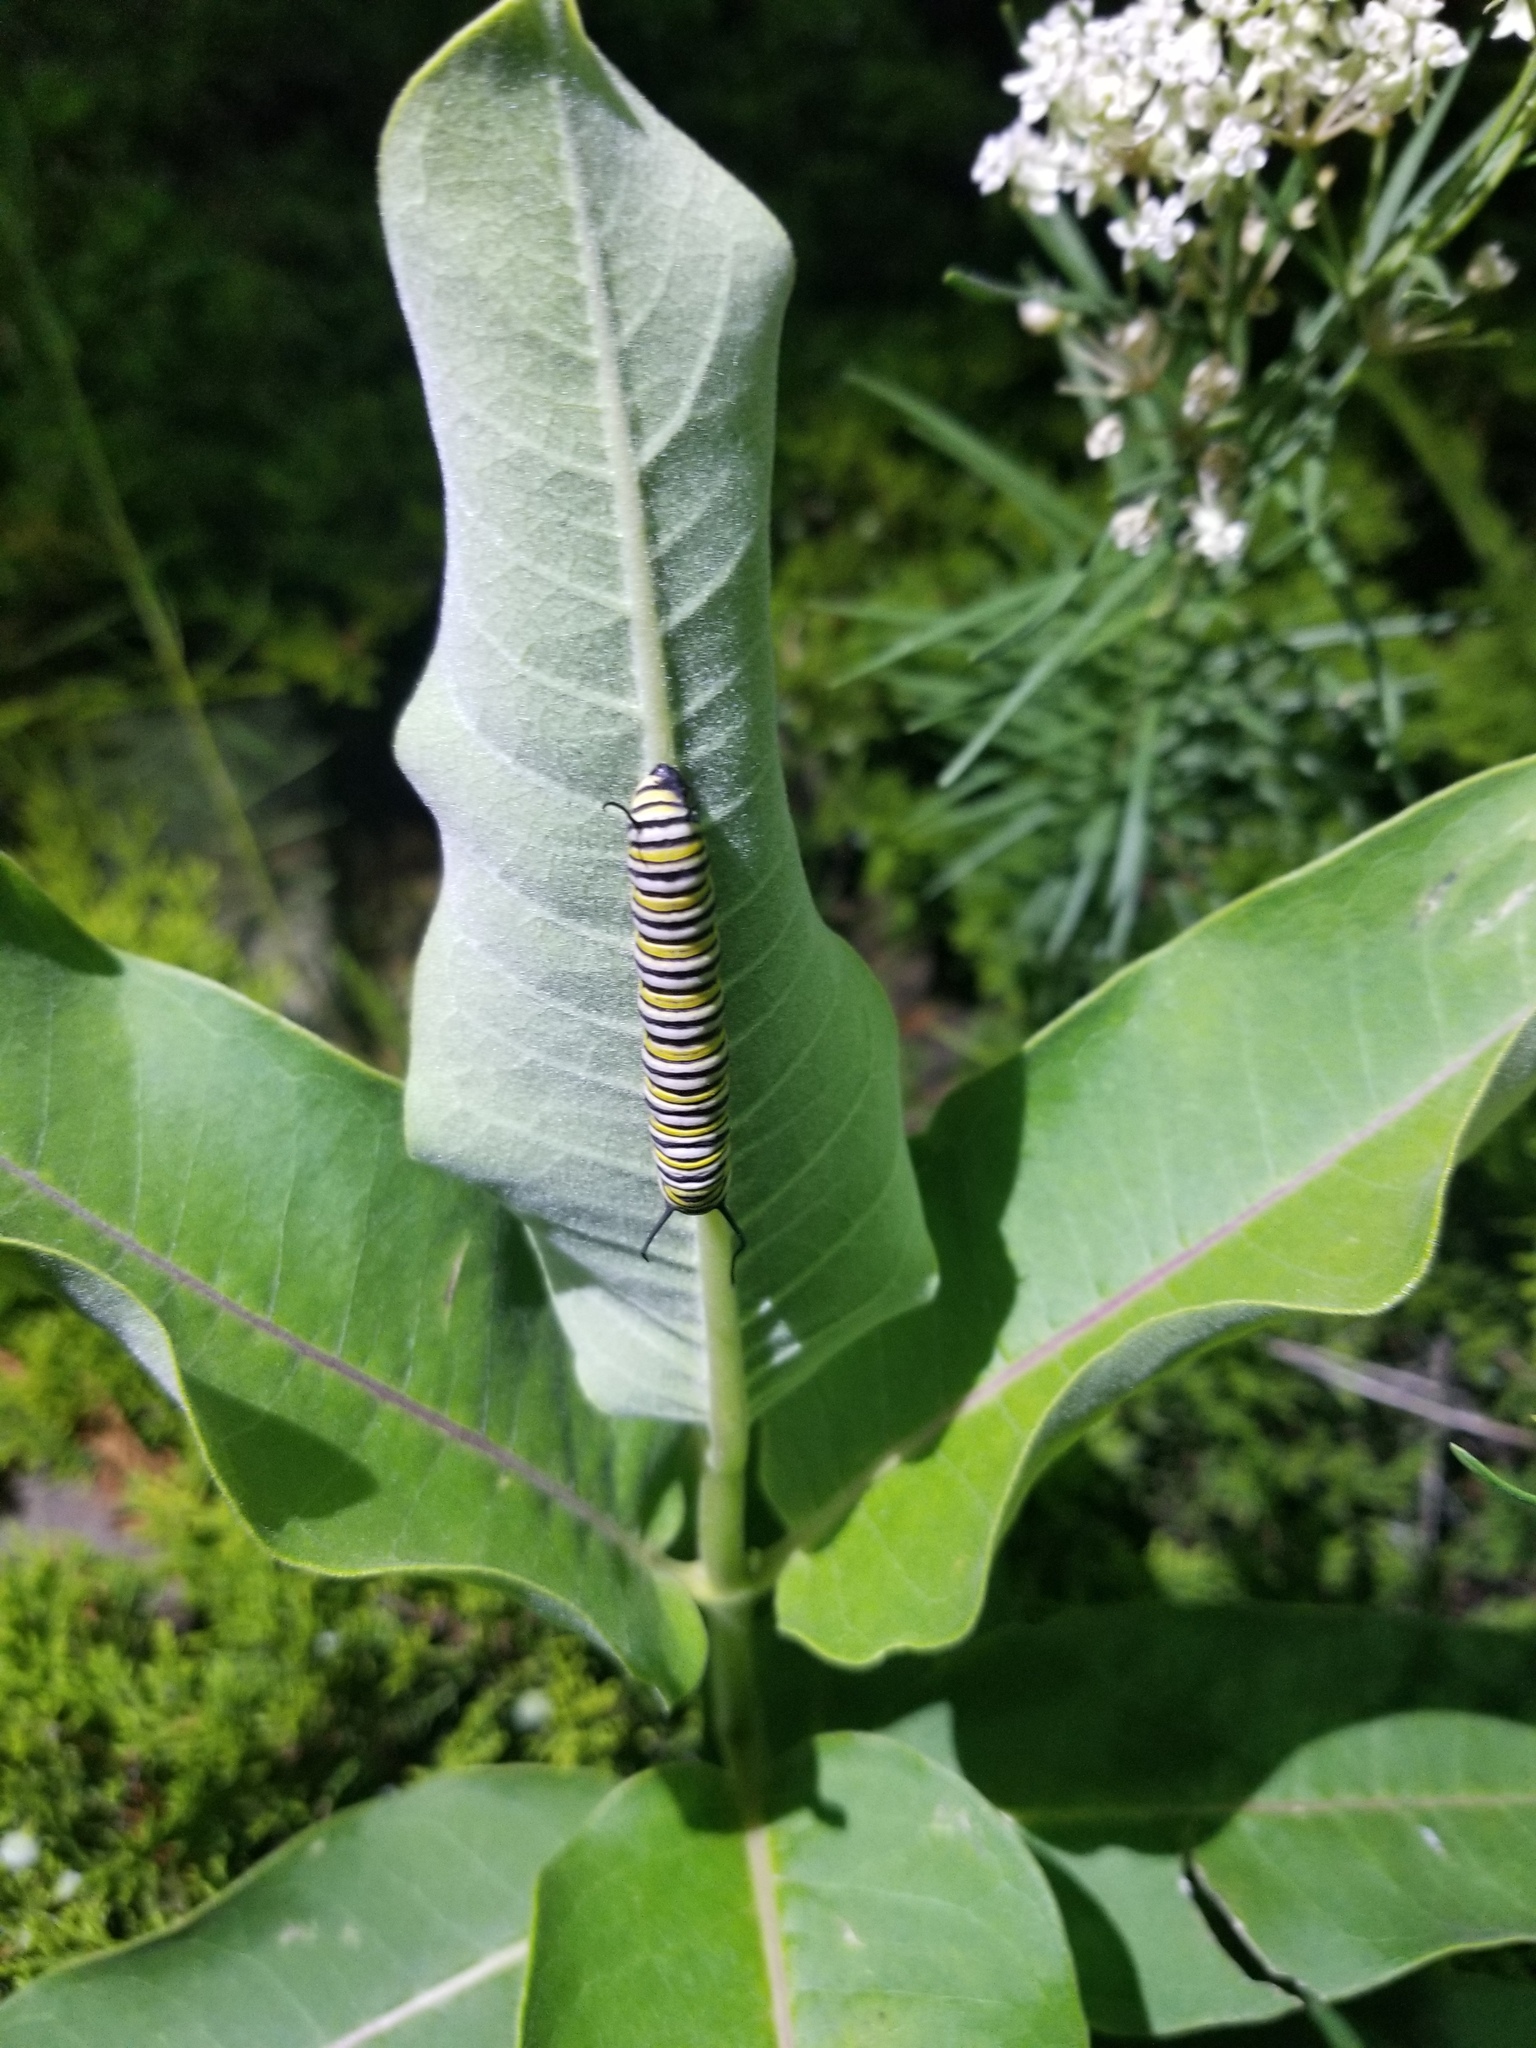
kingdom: Animalia
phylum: Arthropoda
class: Insecta
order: Lepidoptera
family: Nymphalidae
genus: Danaus
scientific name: Danaus plexippus
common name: Monarch
